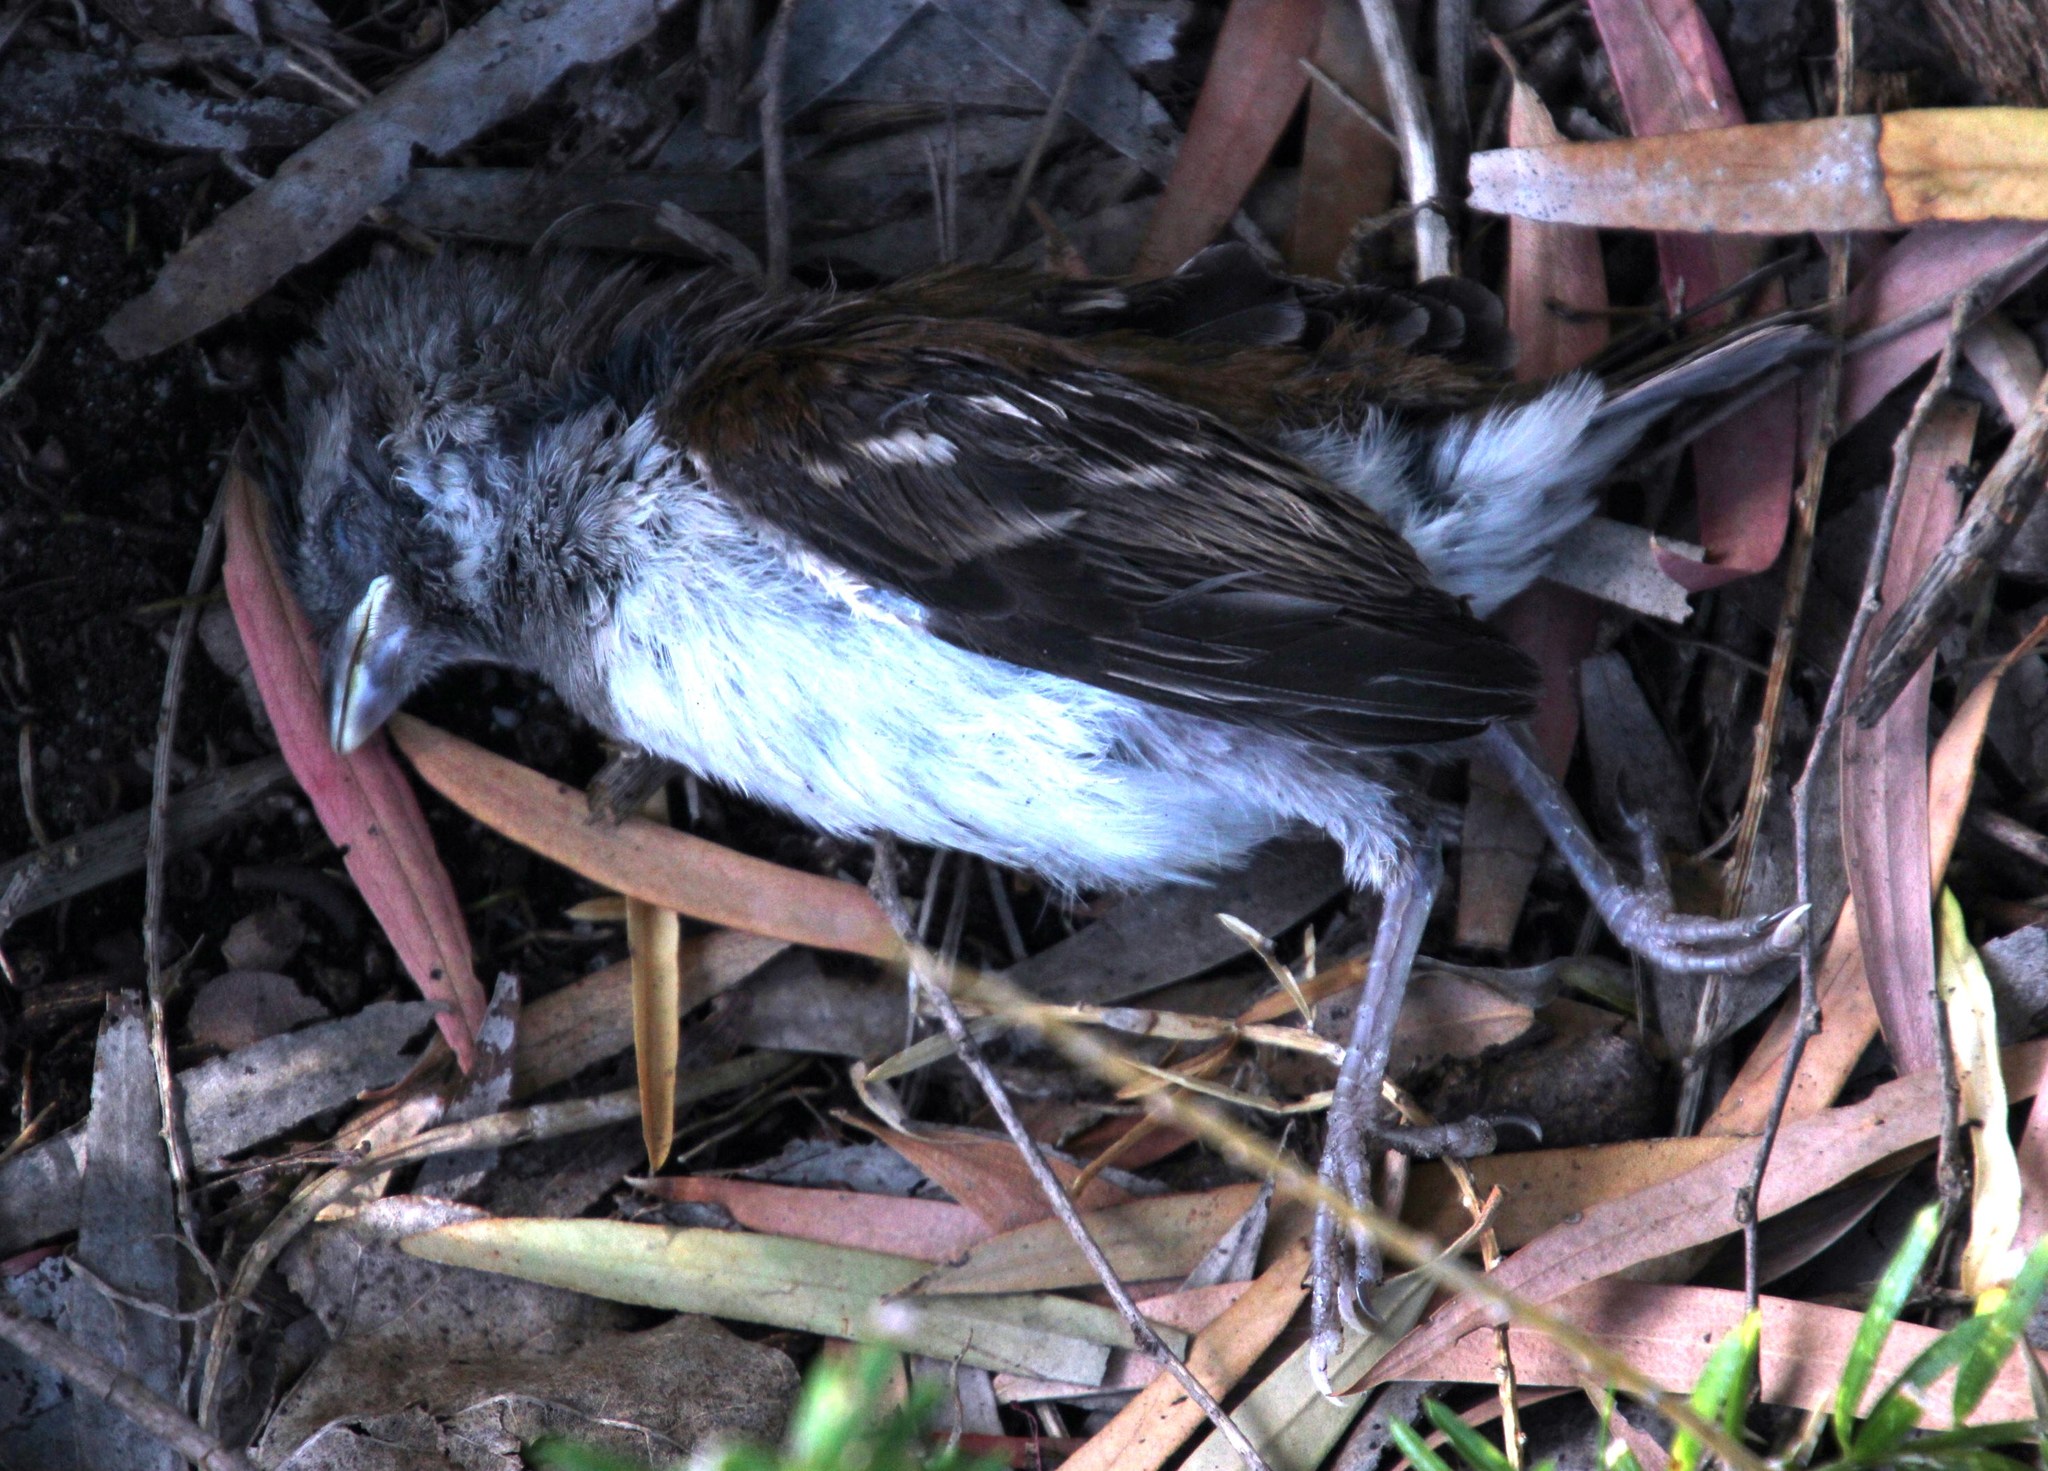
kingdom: Animalia
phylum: Chordata
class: Aves
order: Passeriformes
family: Passeridae
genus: Passer
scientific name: Passer melanurus
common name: Cape sparrow
